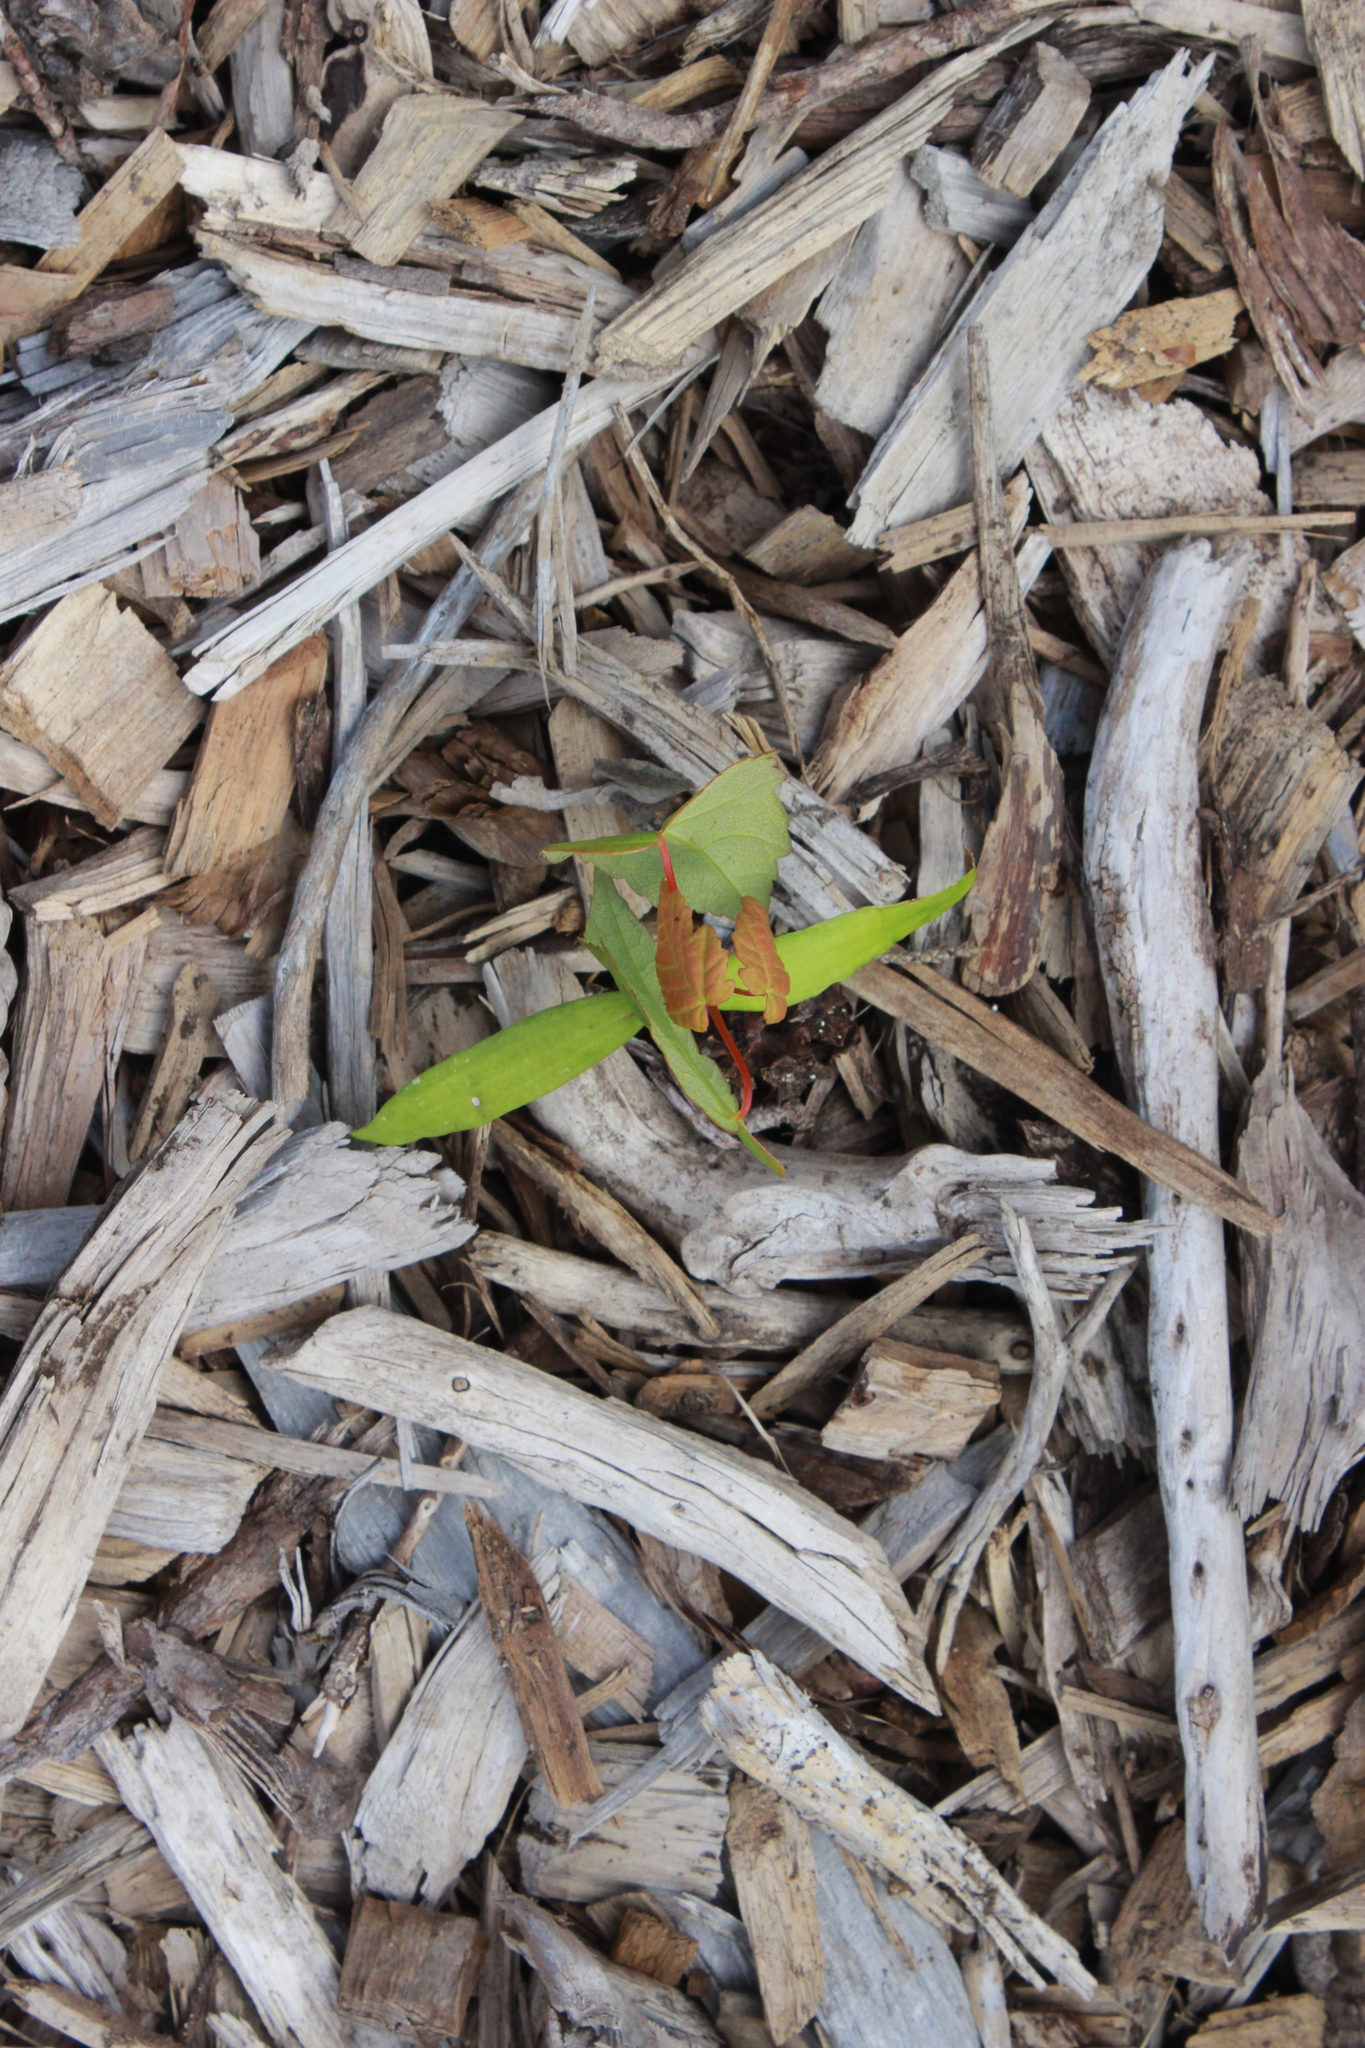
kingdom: Plantae
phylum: Tracheophyta
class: Magnoliopsida
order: Sapindales
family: Sapindaceae
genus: Acer
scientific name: Acer pseudoplatanus
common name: Sycamore
